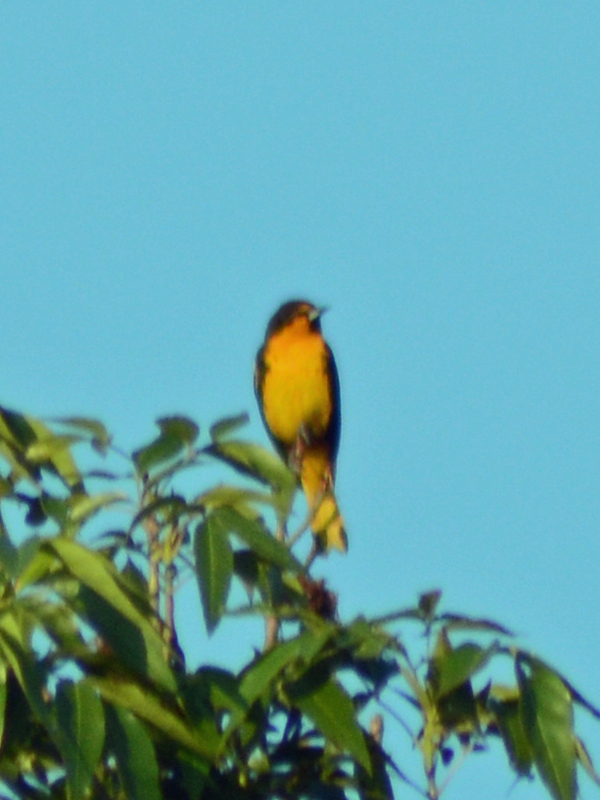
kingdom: Animalia
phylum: Chordata
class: Aves
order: Passeriformes
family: Icteridae
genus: Icterus
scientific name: Icterus abeillei
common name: Black-backed oriole
